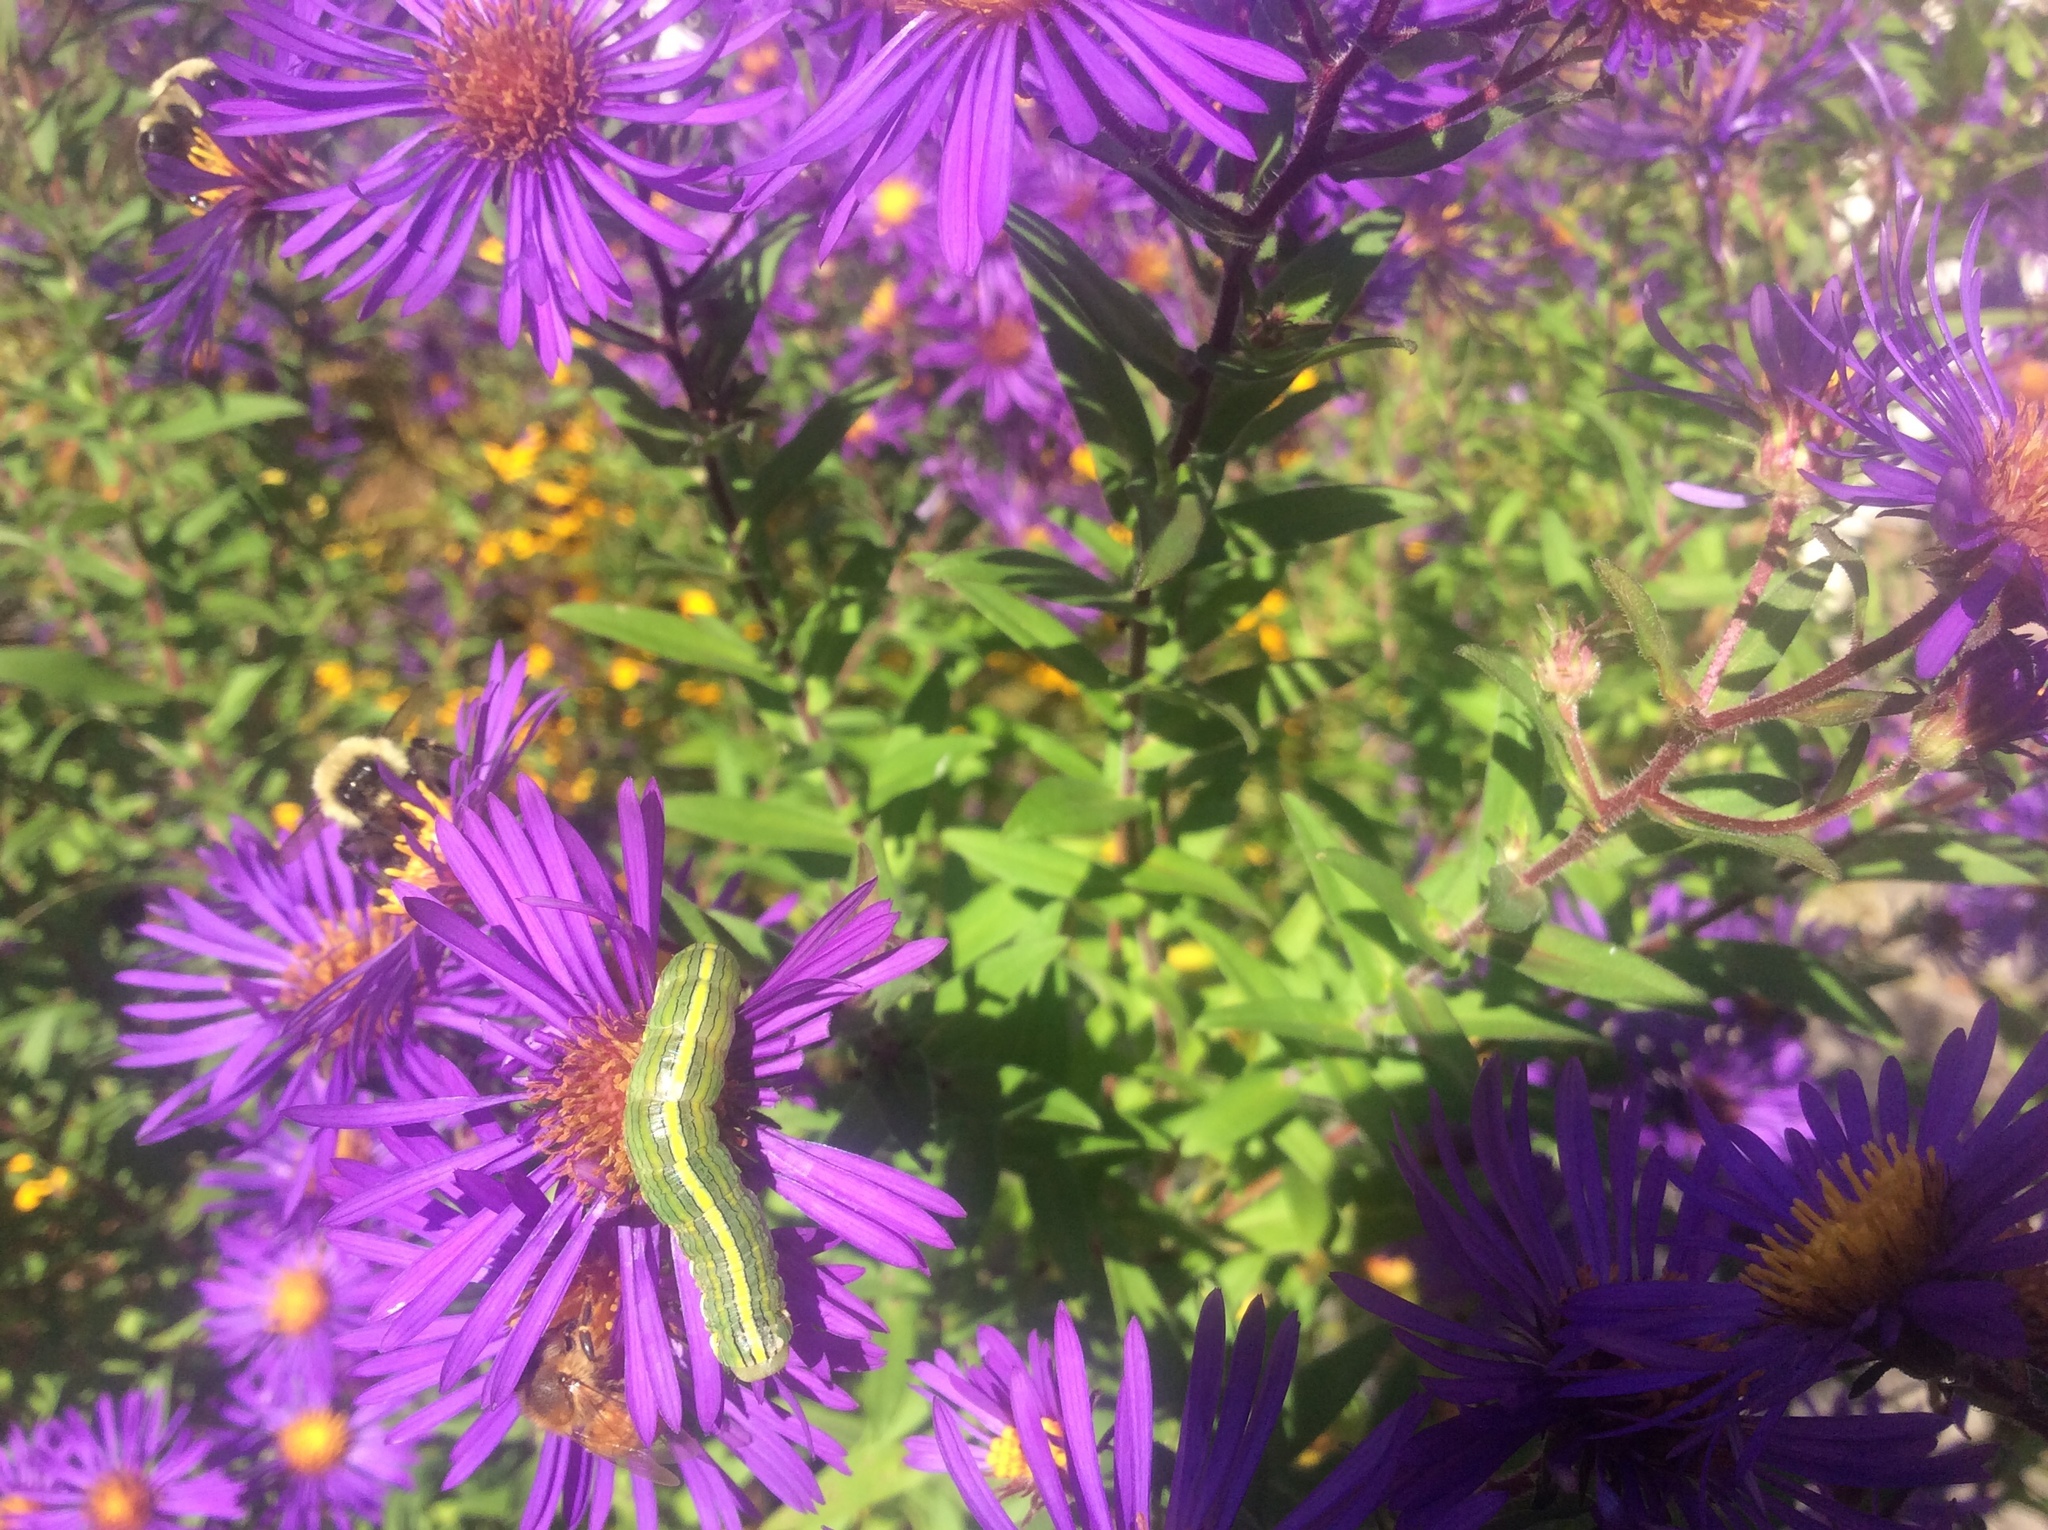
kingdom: Animalia
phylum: Arthropoda
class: Insecta
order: Lepidoptera
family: Noctuidae
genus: Cucullia
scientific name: Cucullia asteroides
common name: Asteroid moth
